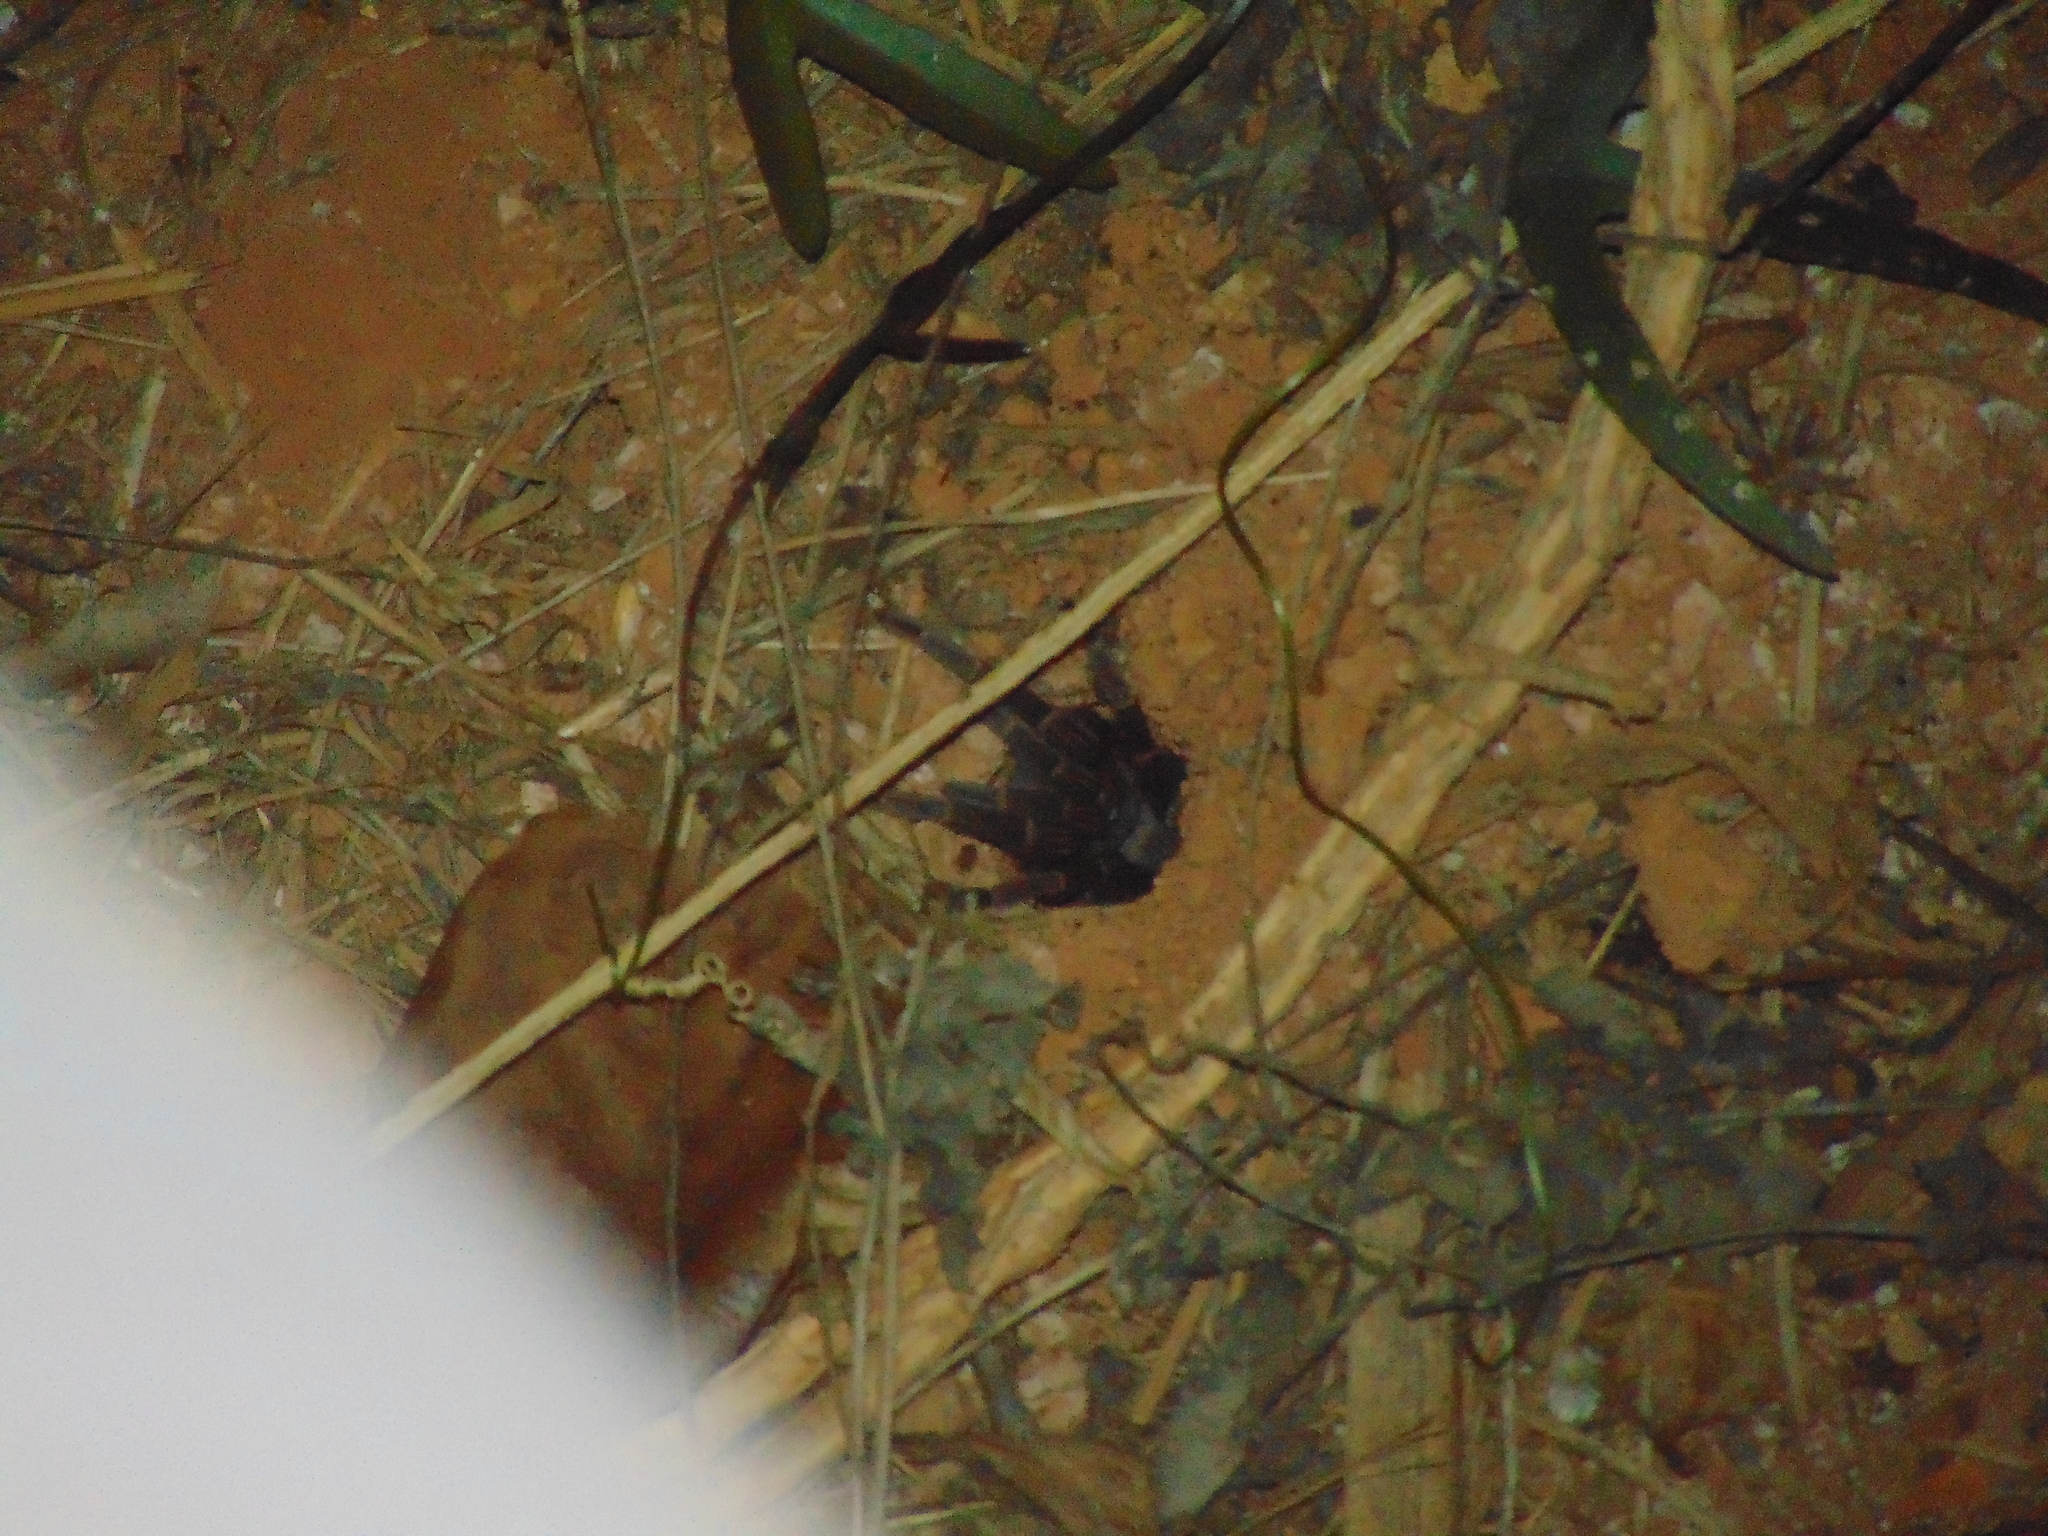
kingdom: Animalia
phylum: Arthropoda
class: Arachnida
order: Araneae
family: Theraphosidae
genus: Cyrtopholis
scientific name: Cyrtopholis portoricae
